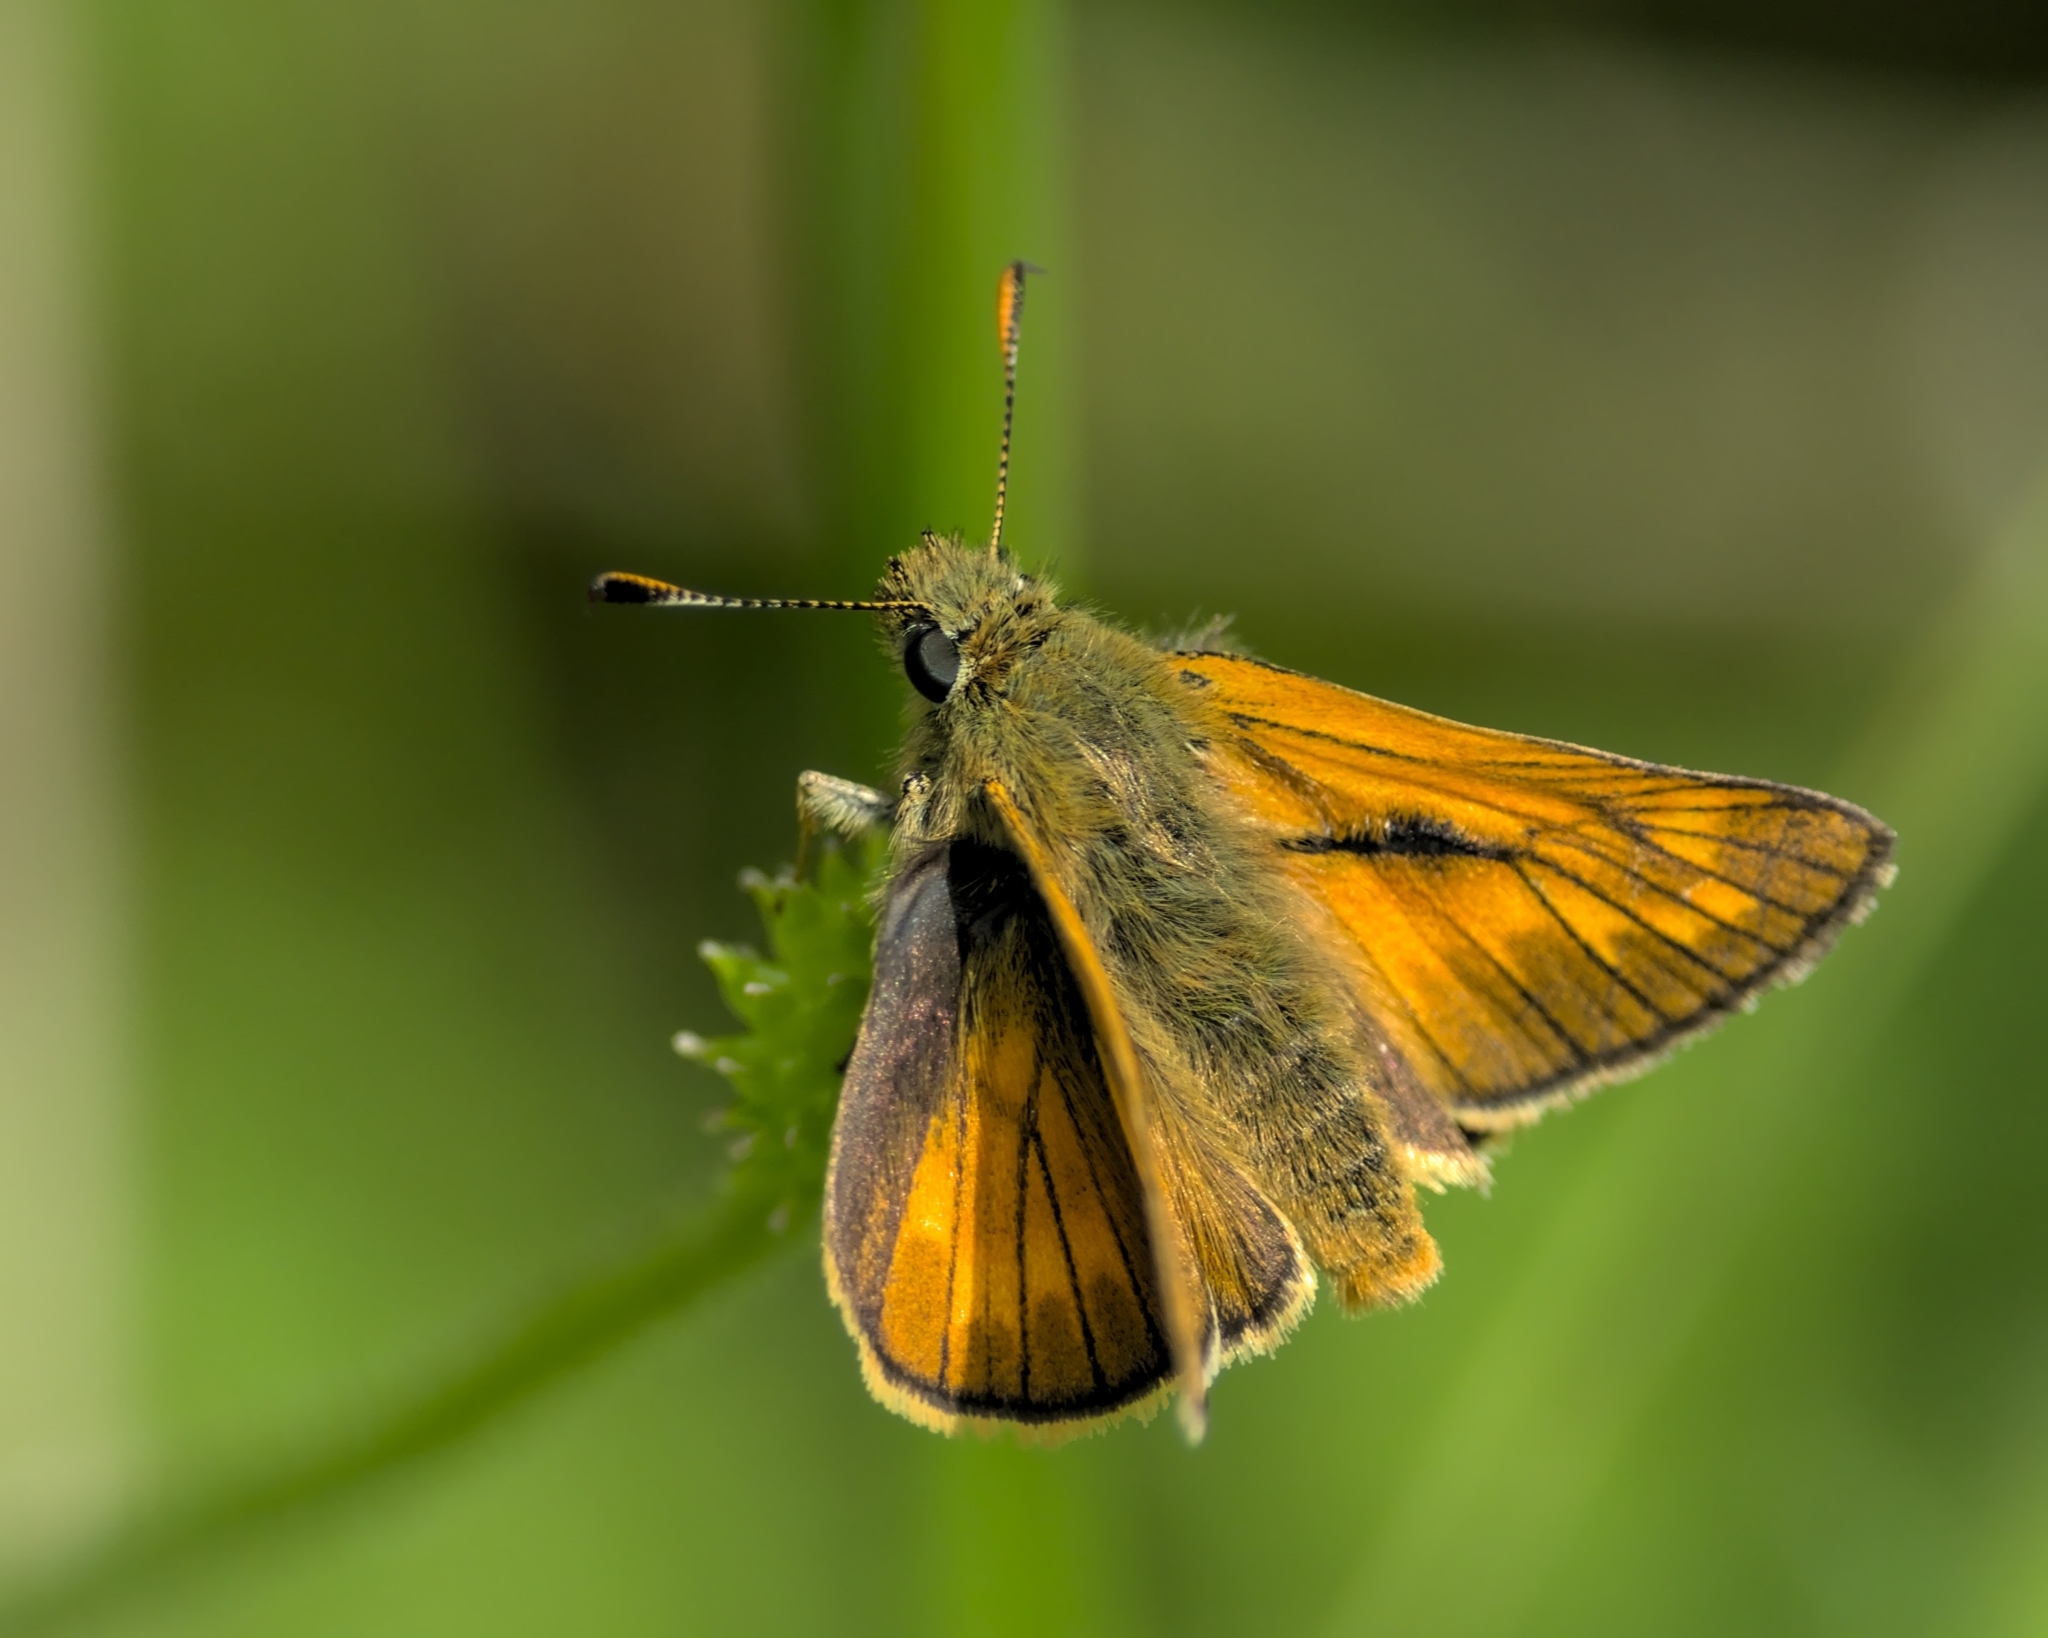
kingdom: Animalia
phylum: Arthropoda
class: Insecta
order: Lepidoptera
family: Hesperiidae
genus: Ochlodes
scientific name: Ochlodes venata
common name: Large skipper
